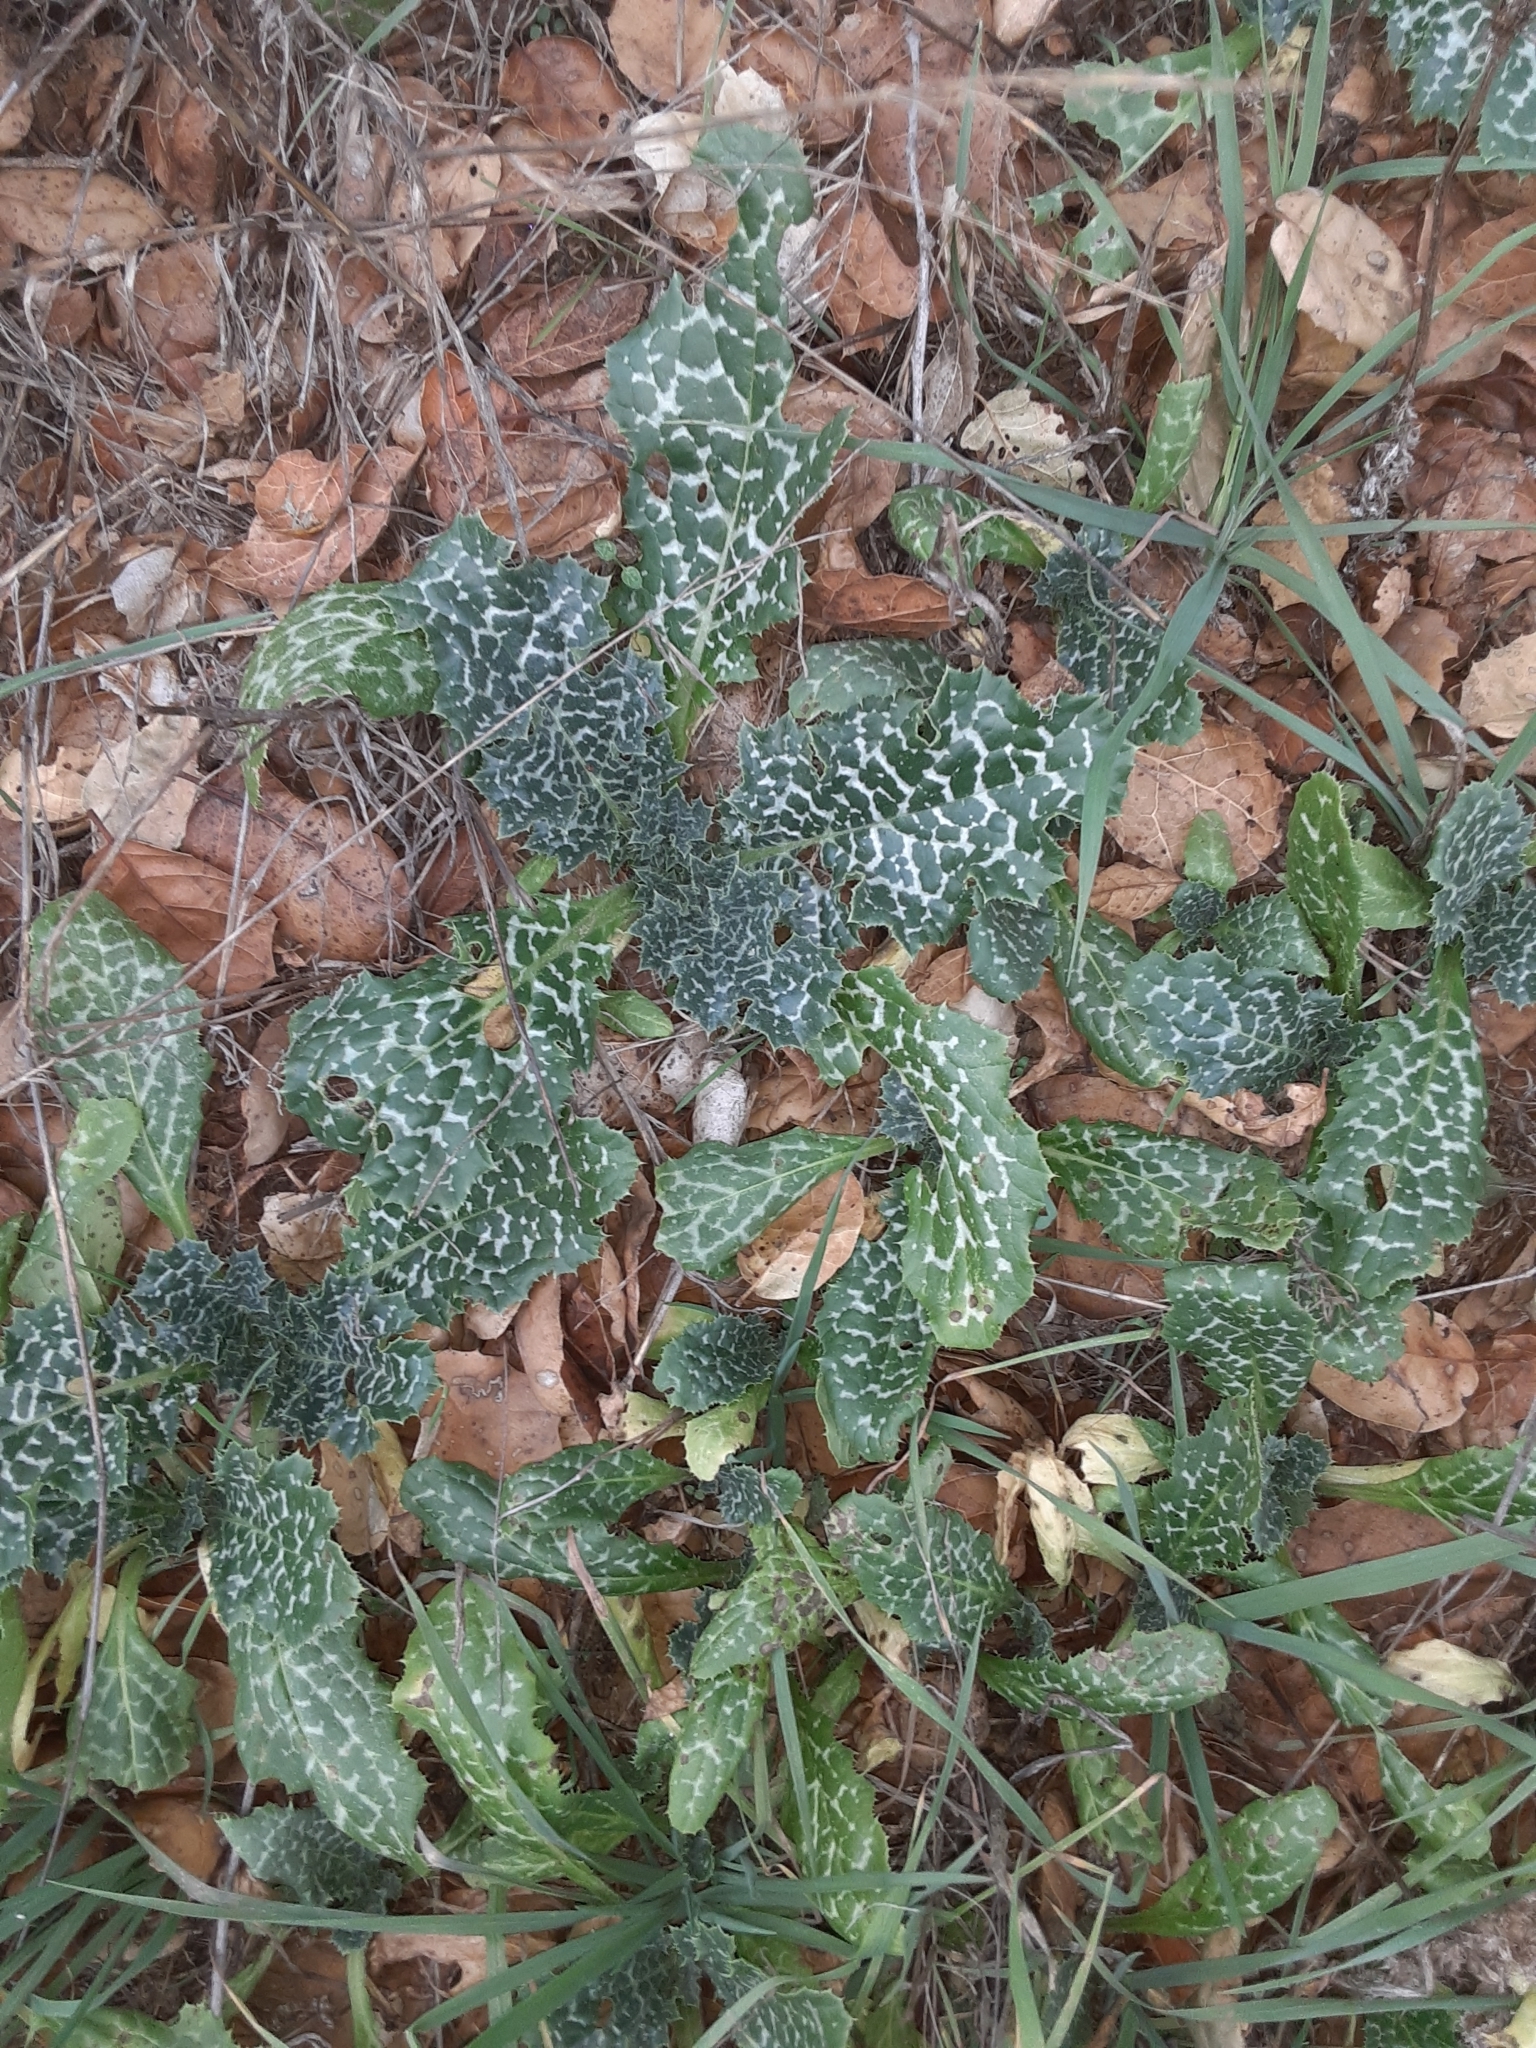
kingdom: Plantae
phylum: Tracheophyta
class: Magnoliopsida
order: Asterales
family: Asteraceae
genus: Silybum
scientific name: Silybum marianum
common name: Milk thistle
